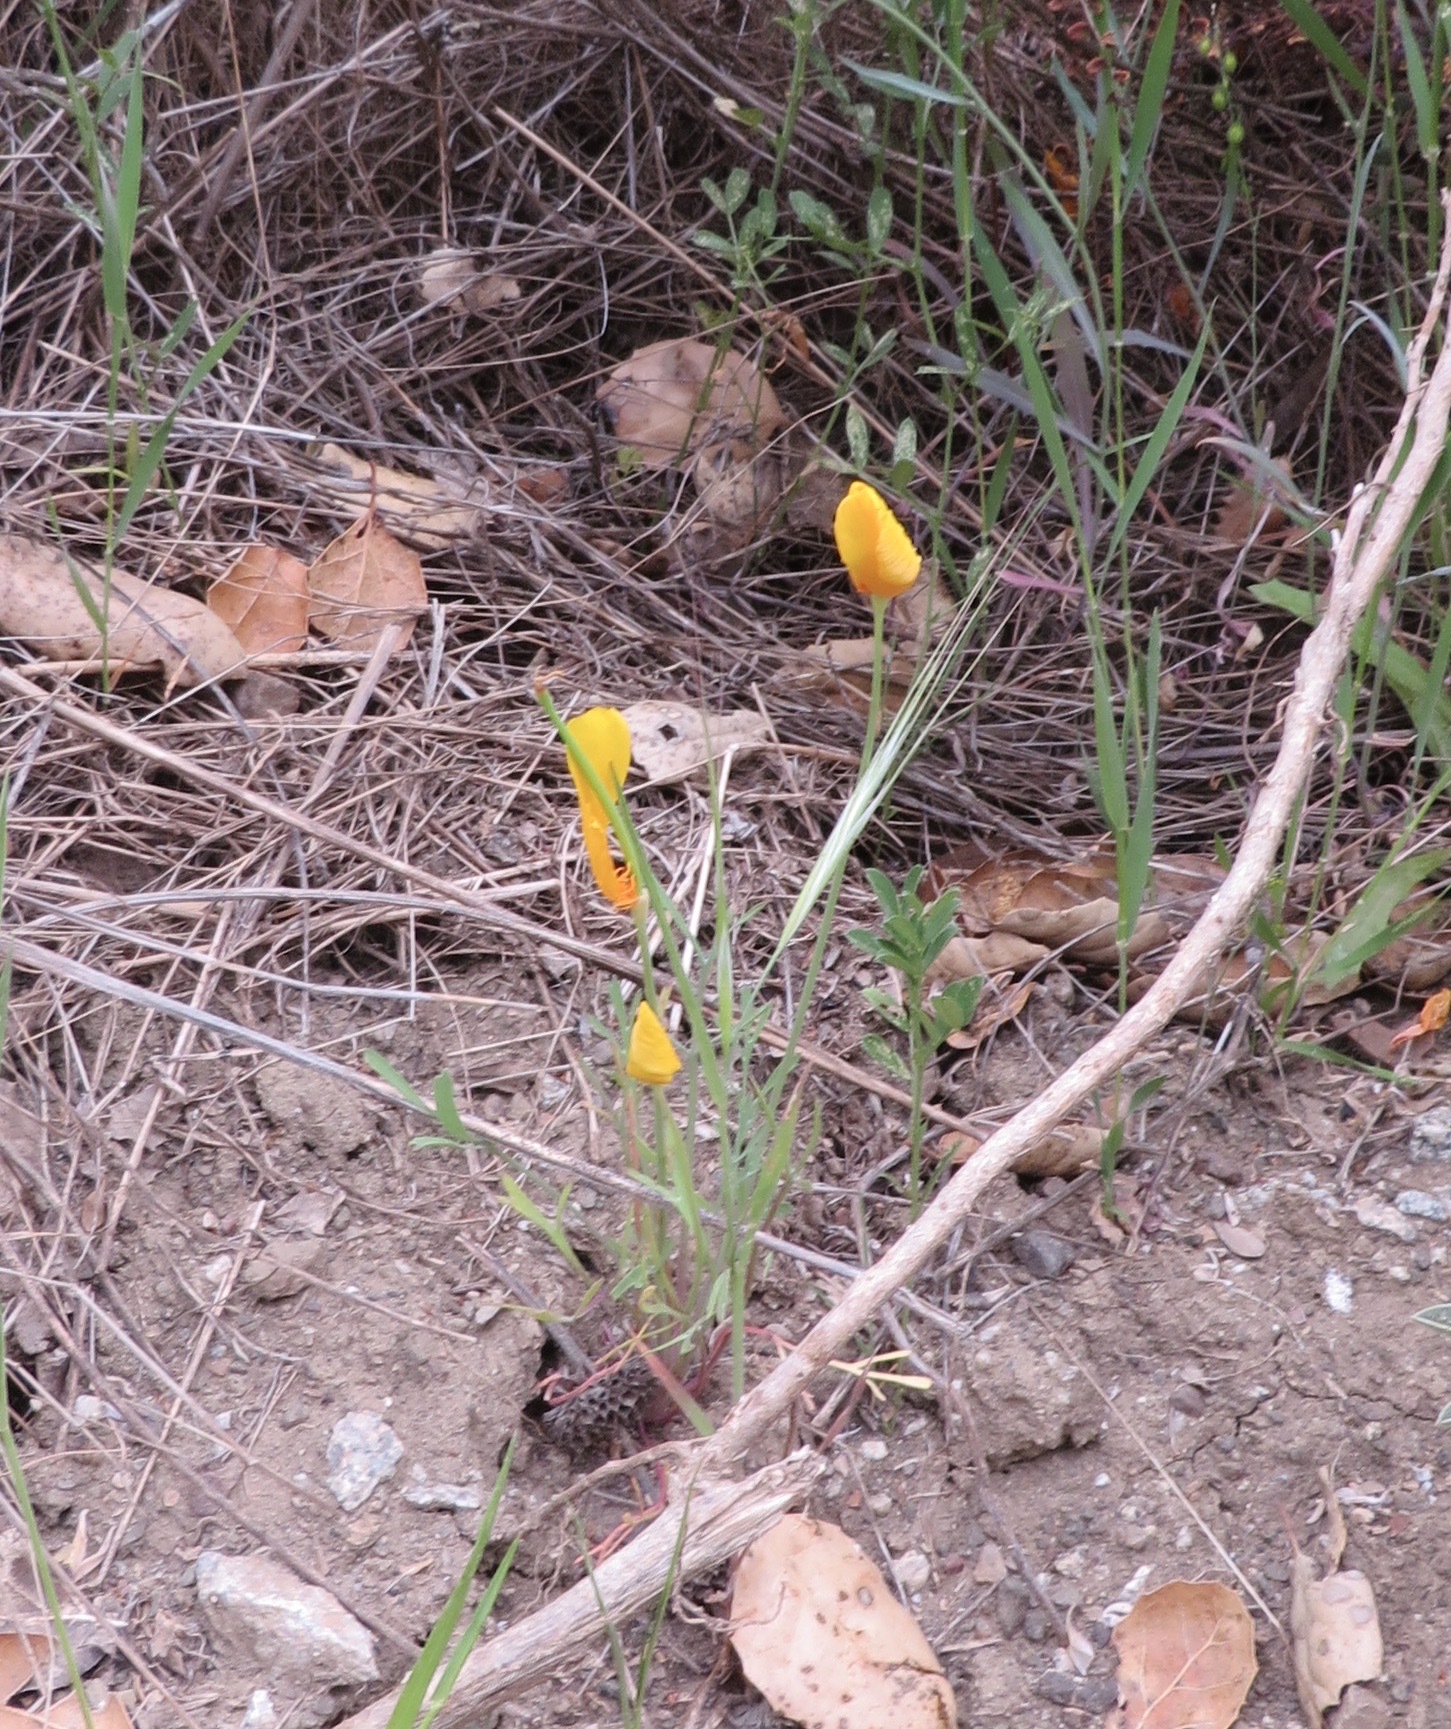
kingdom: Plantae
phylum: Tracheophyta
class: Magnoliopsida
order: Ranunculales
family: Papaveraceae
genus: Eschscholzia
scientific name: Eschscholzia caespitosa
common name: Tufted california-poppy
